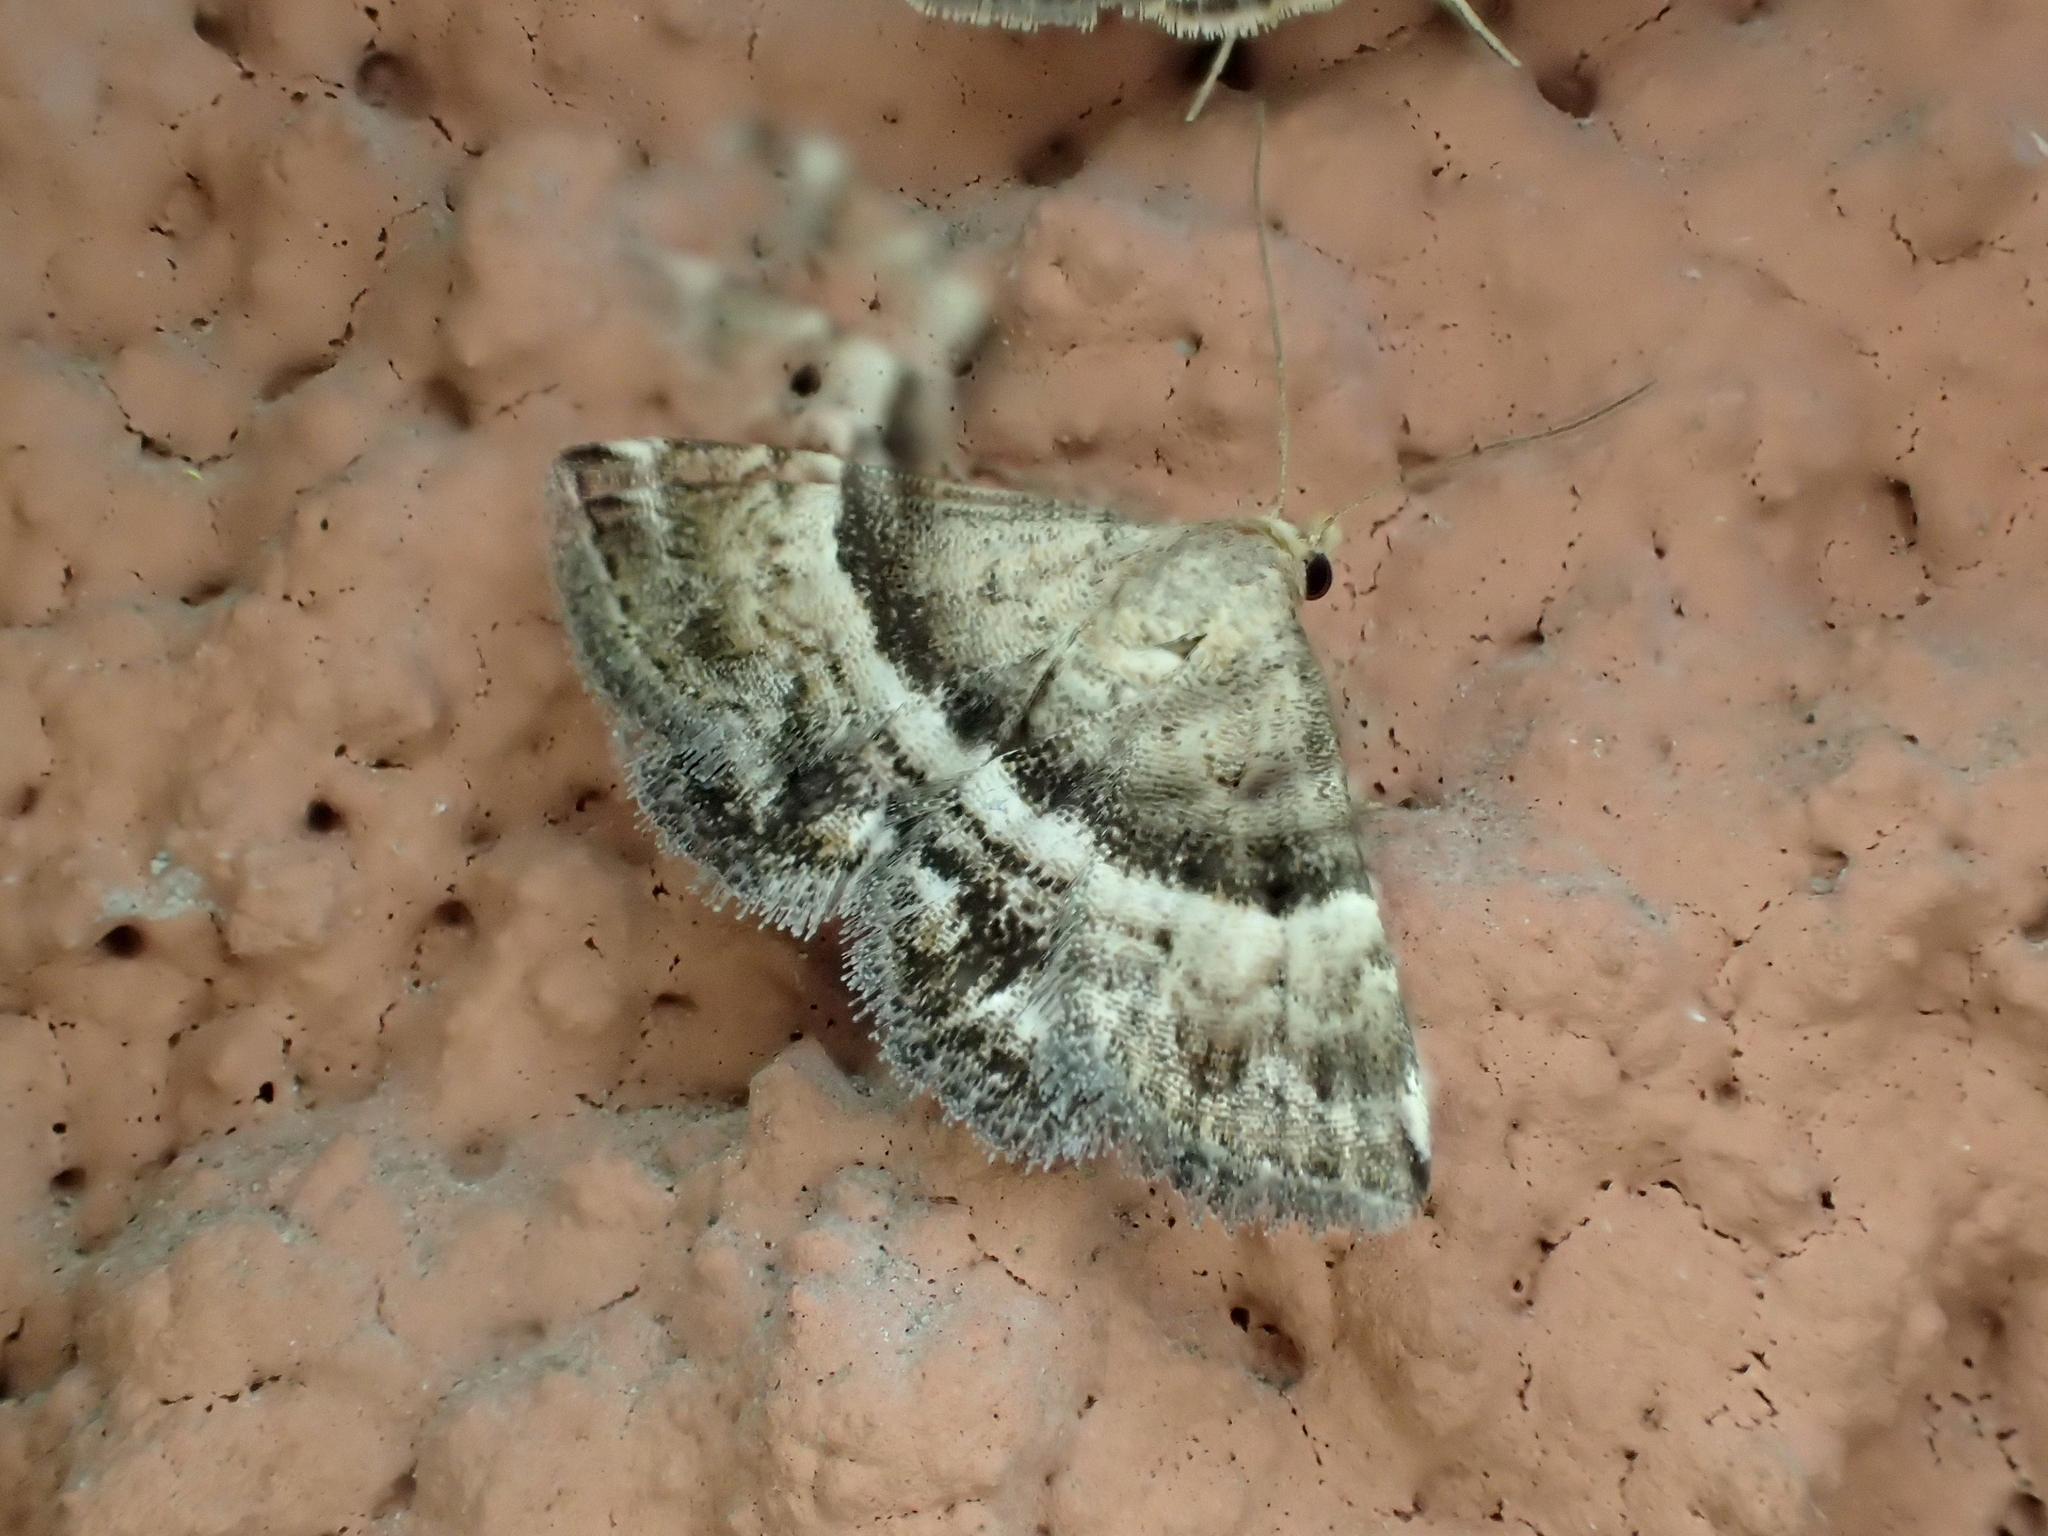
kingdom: Animalia
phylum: Arthropoda
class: Insecta
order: Lepidoptera
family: Noctuidae
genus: Odice
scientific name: Odice jucunda
